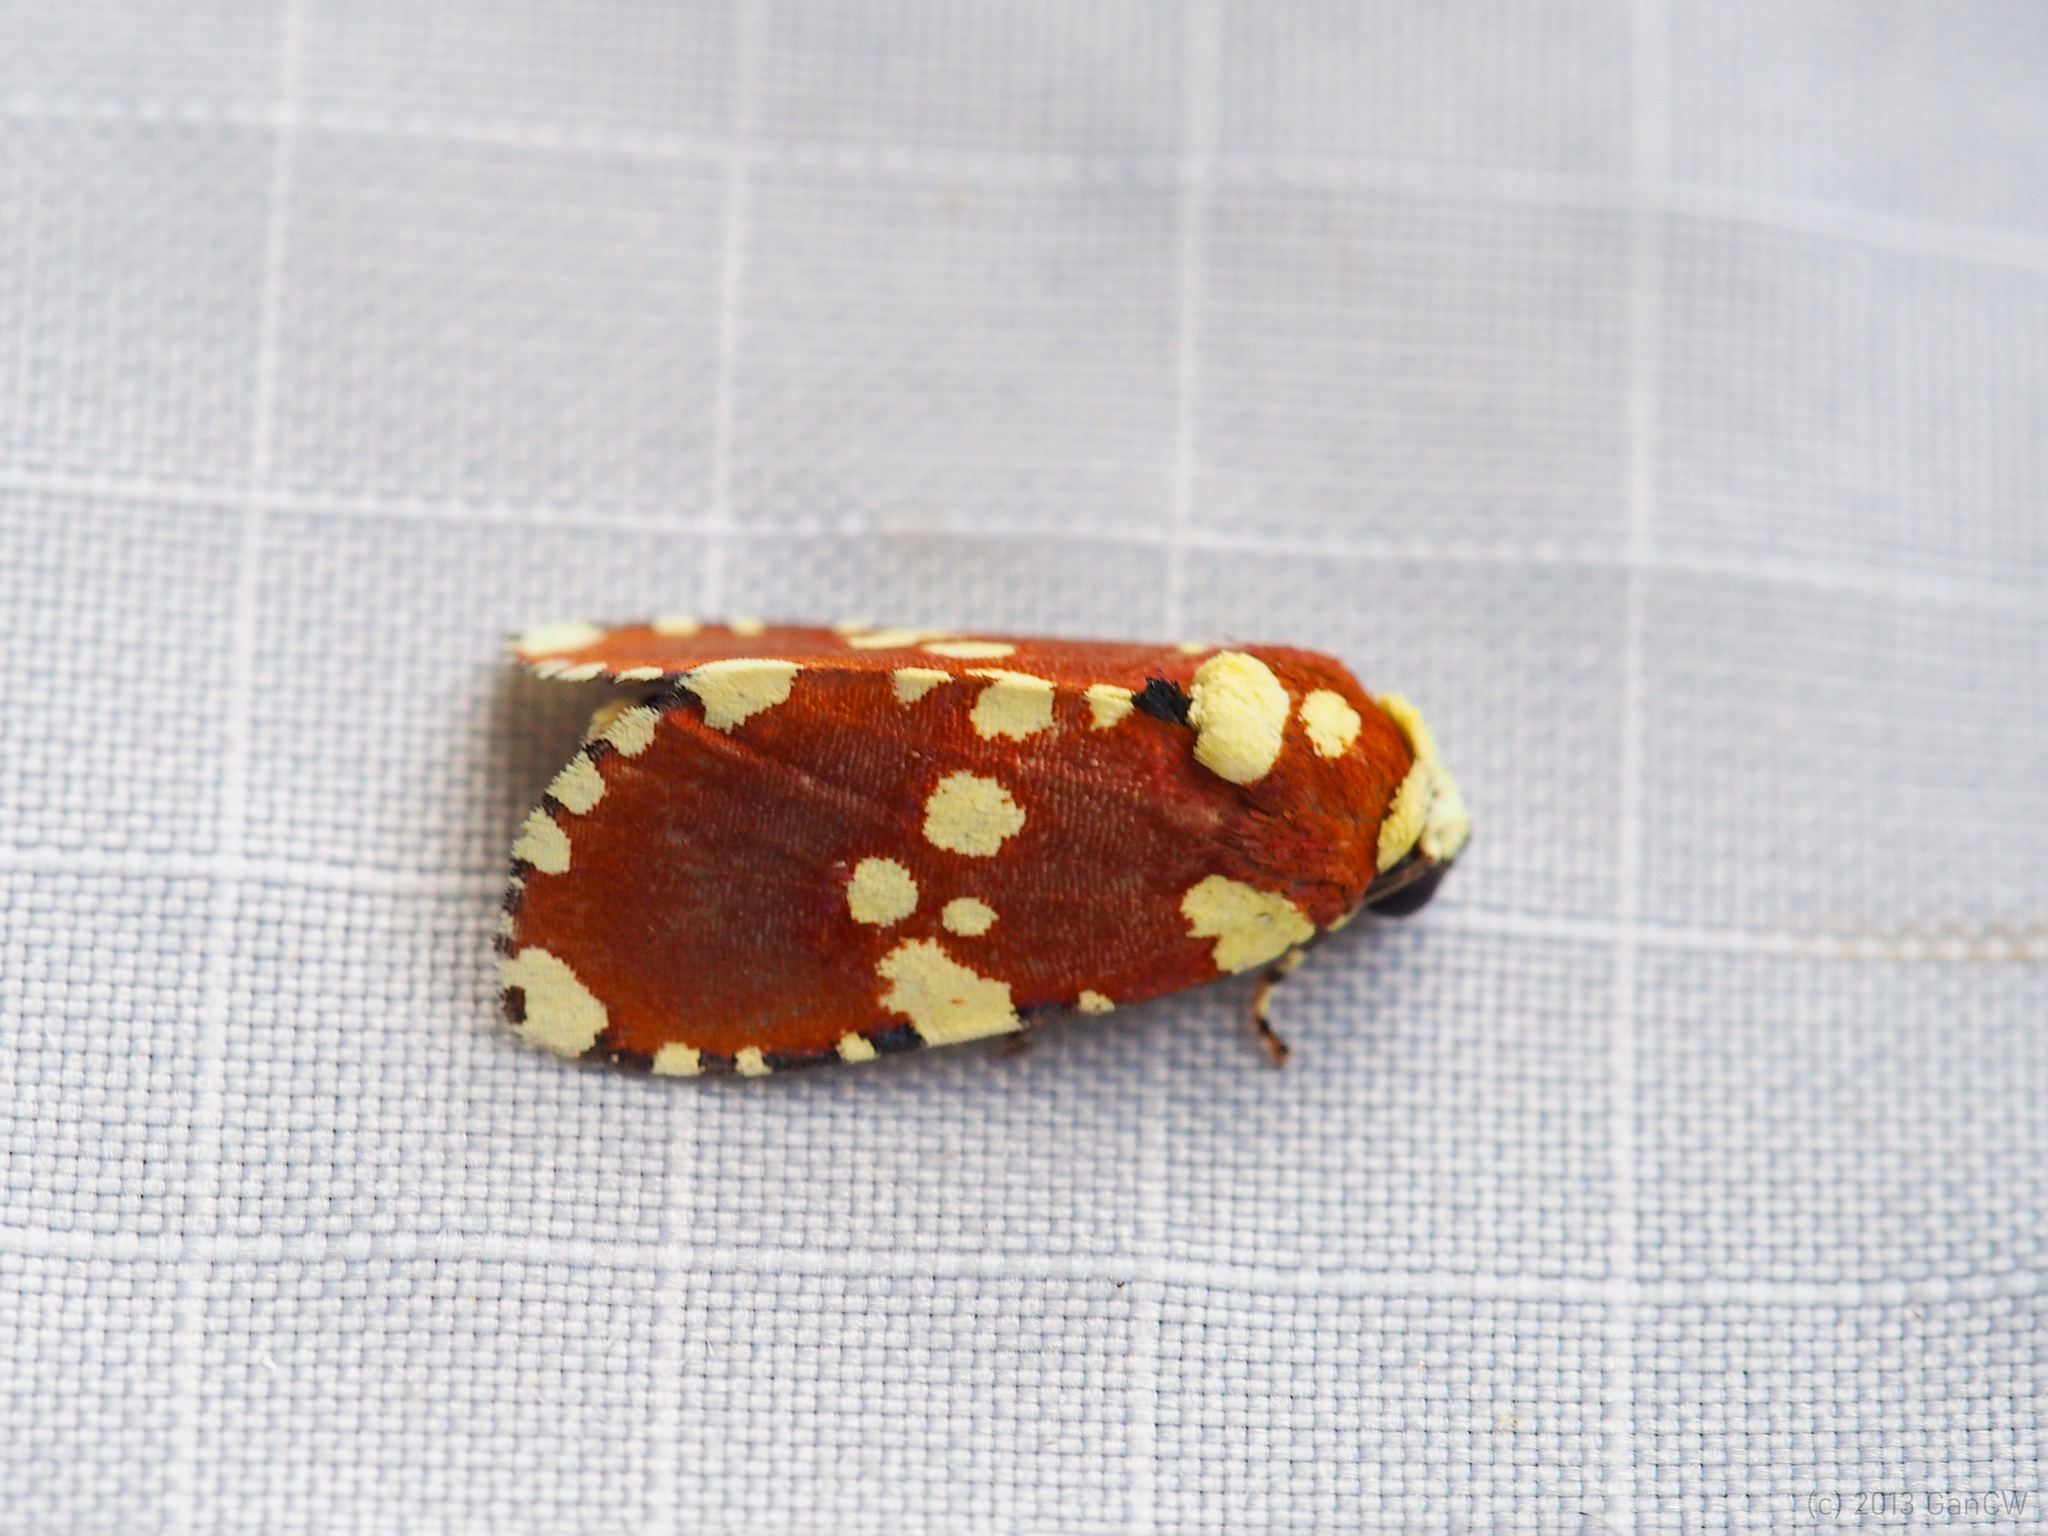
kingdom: Animalia
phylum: Arthropoda
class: Insecta
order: Lepidoptera
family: Noctuidae
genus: Yepcalphis
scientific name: Yepcalphis dilectissima
